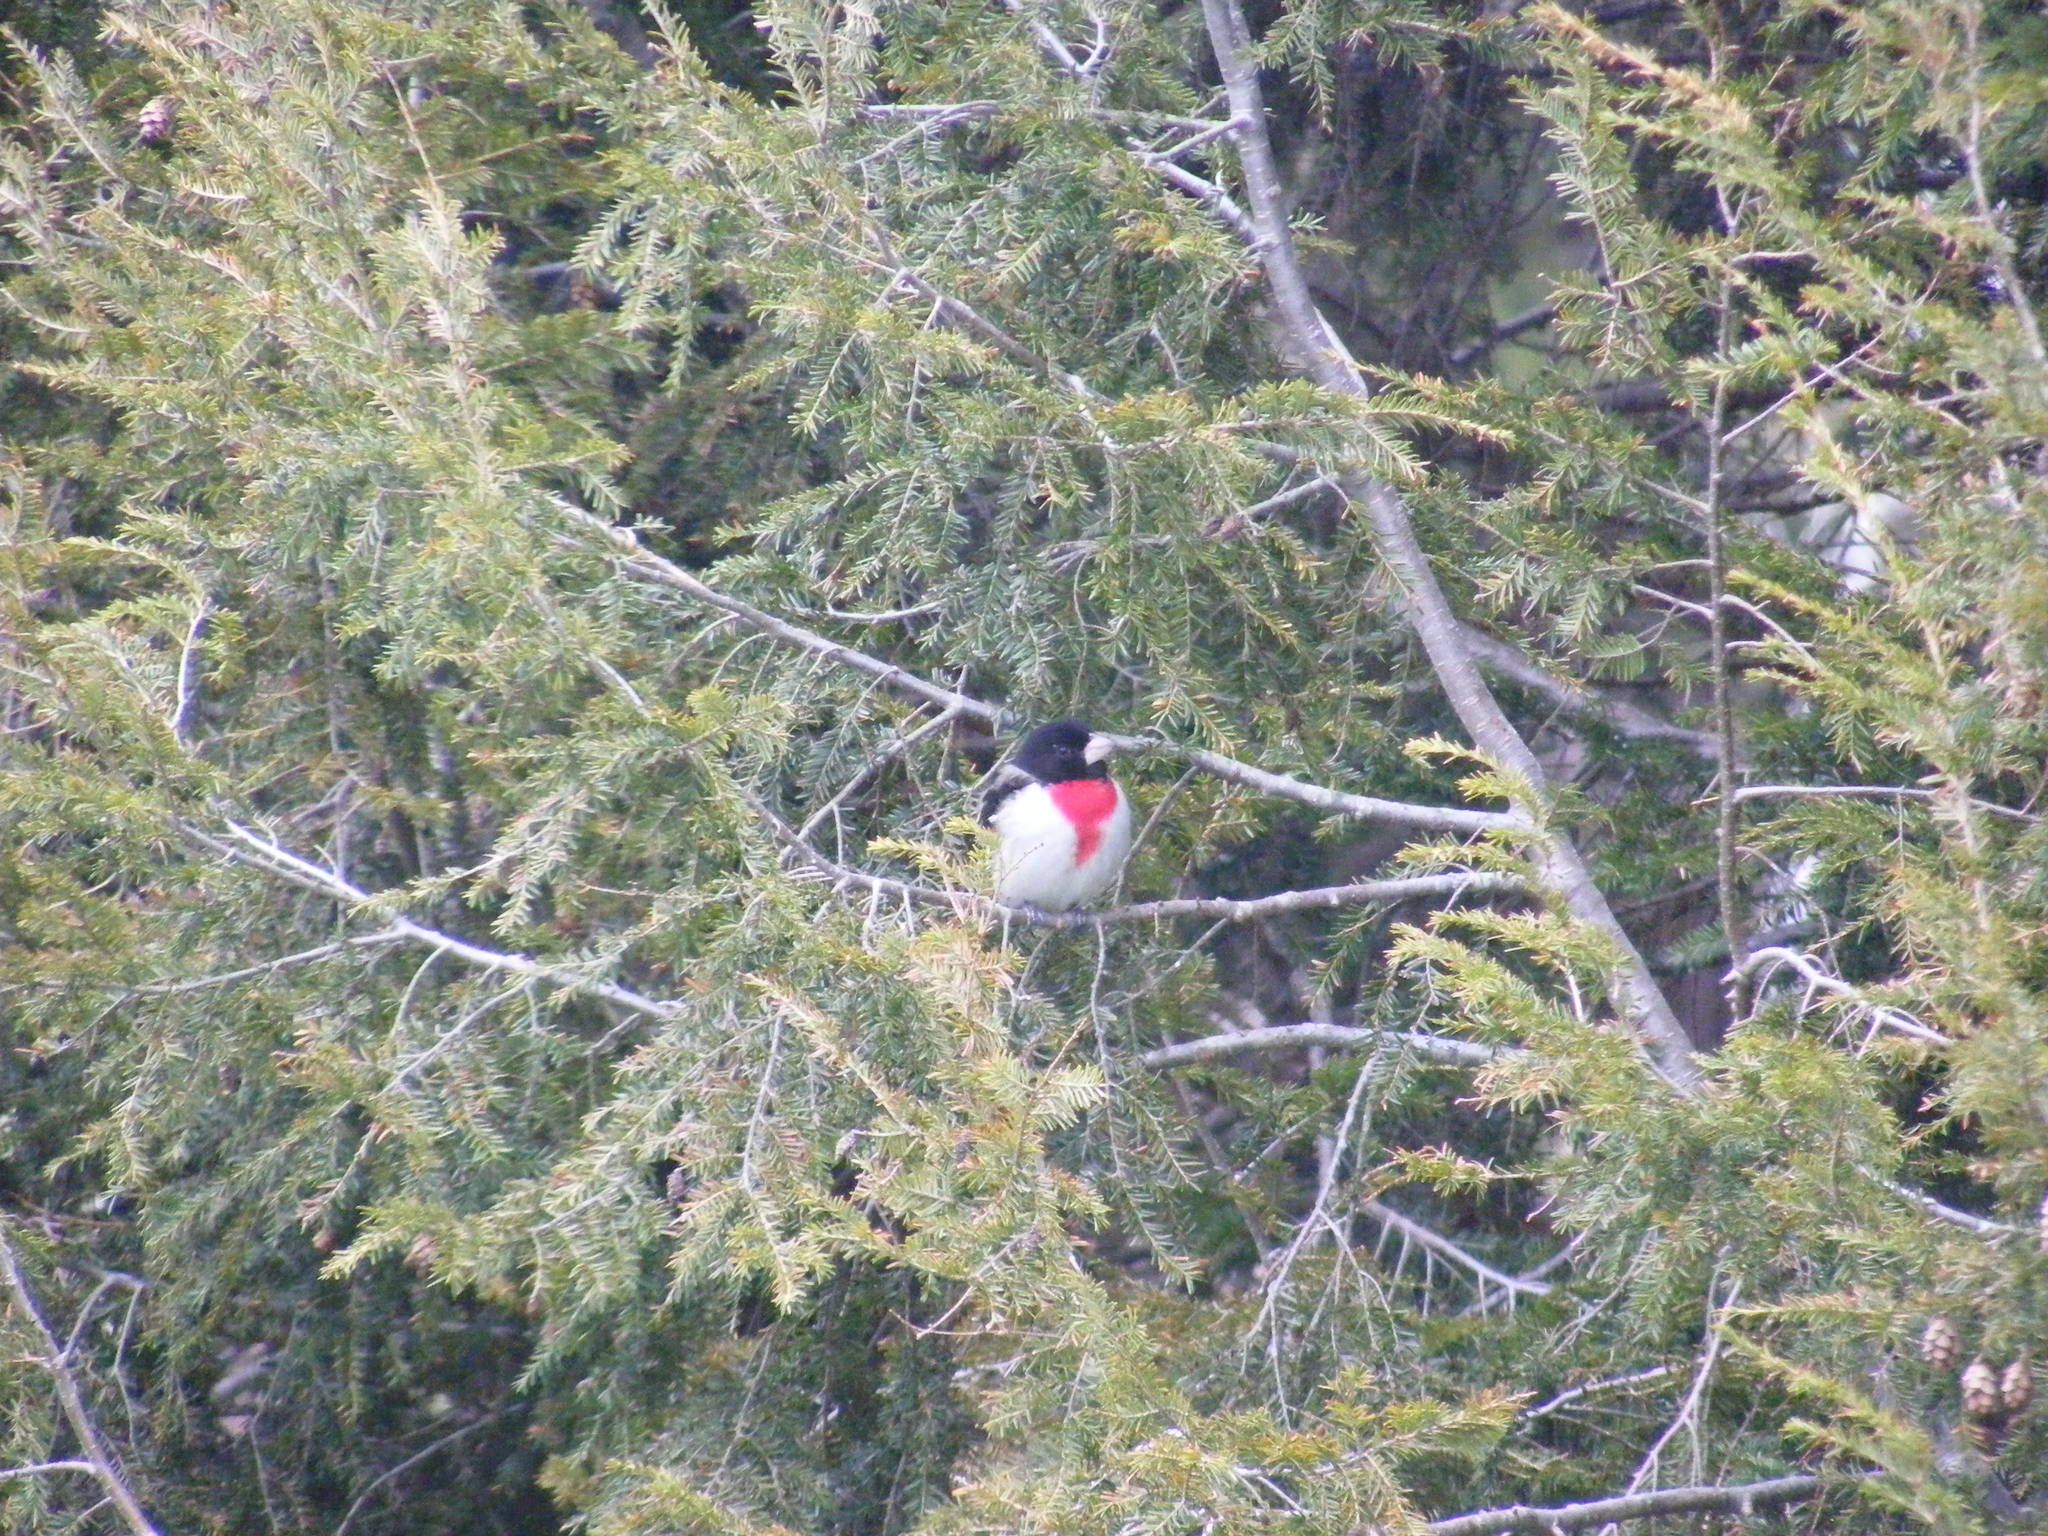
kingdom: Animalia
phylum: Chordata
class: Aves
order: Passeriformes
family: Cardinalidae
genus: Pheucticus
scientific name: Pheucticus ludovicianus
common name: Rose-breasted grosbeak
